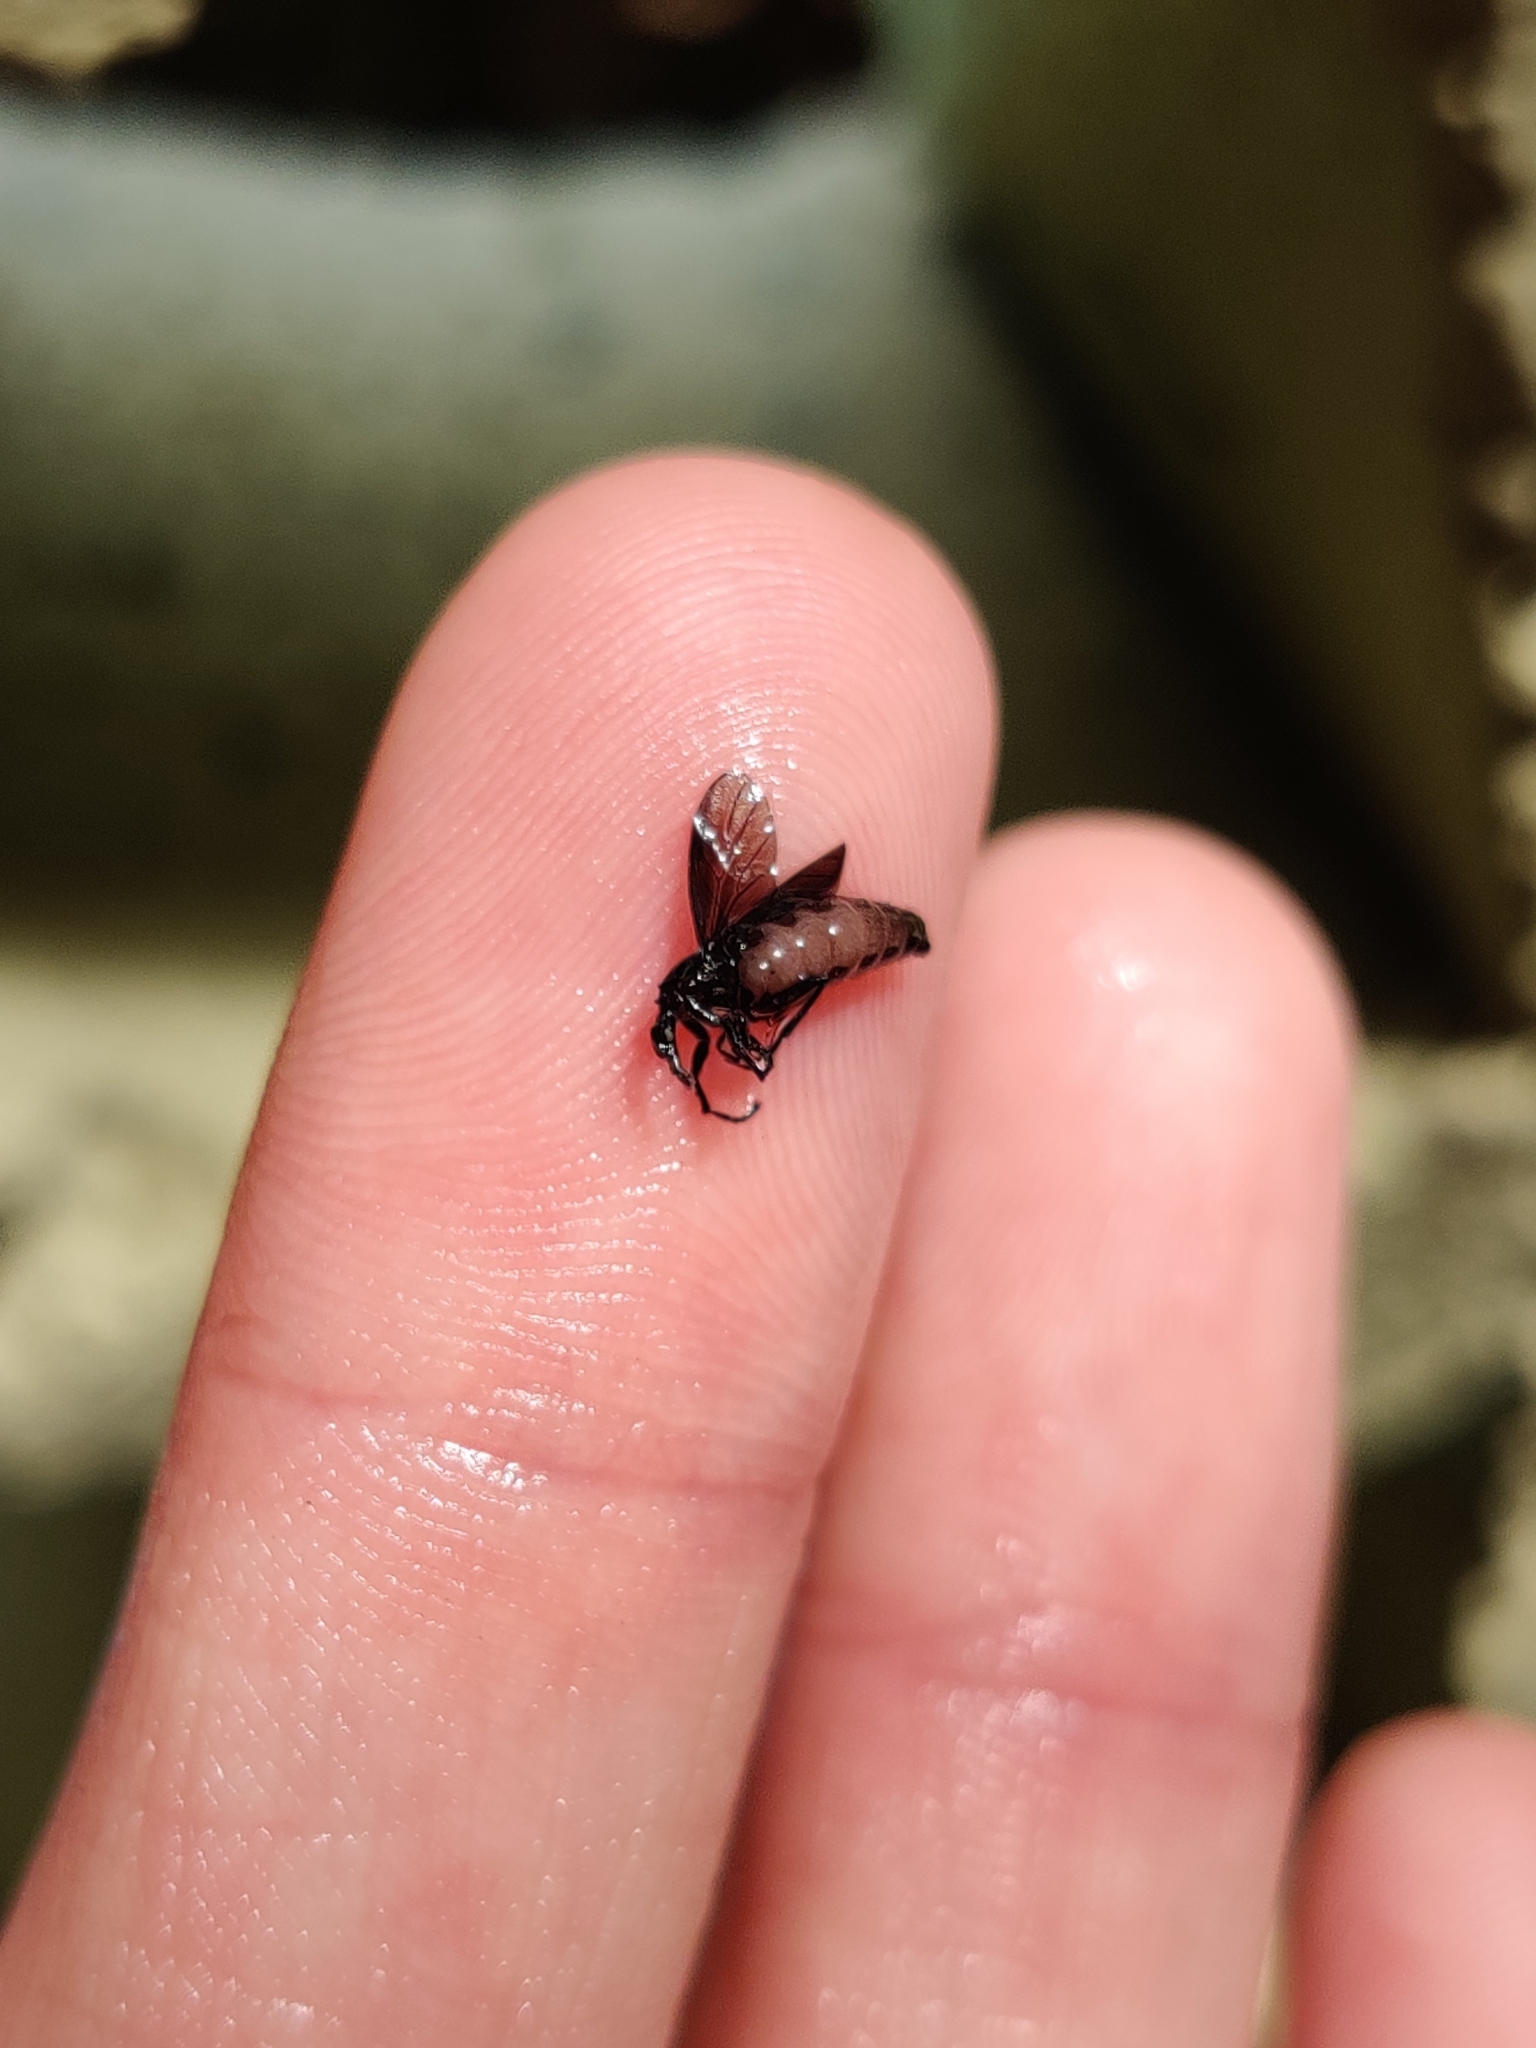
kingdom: Animalia
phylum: Arthropoda
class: Insecta
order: Diptera
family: Bibionidae
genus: Dilophus
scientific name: Dilophus orbatus
